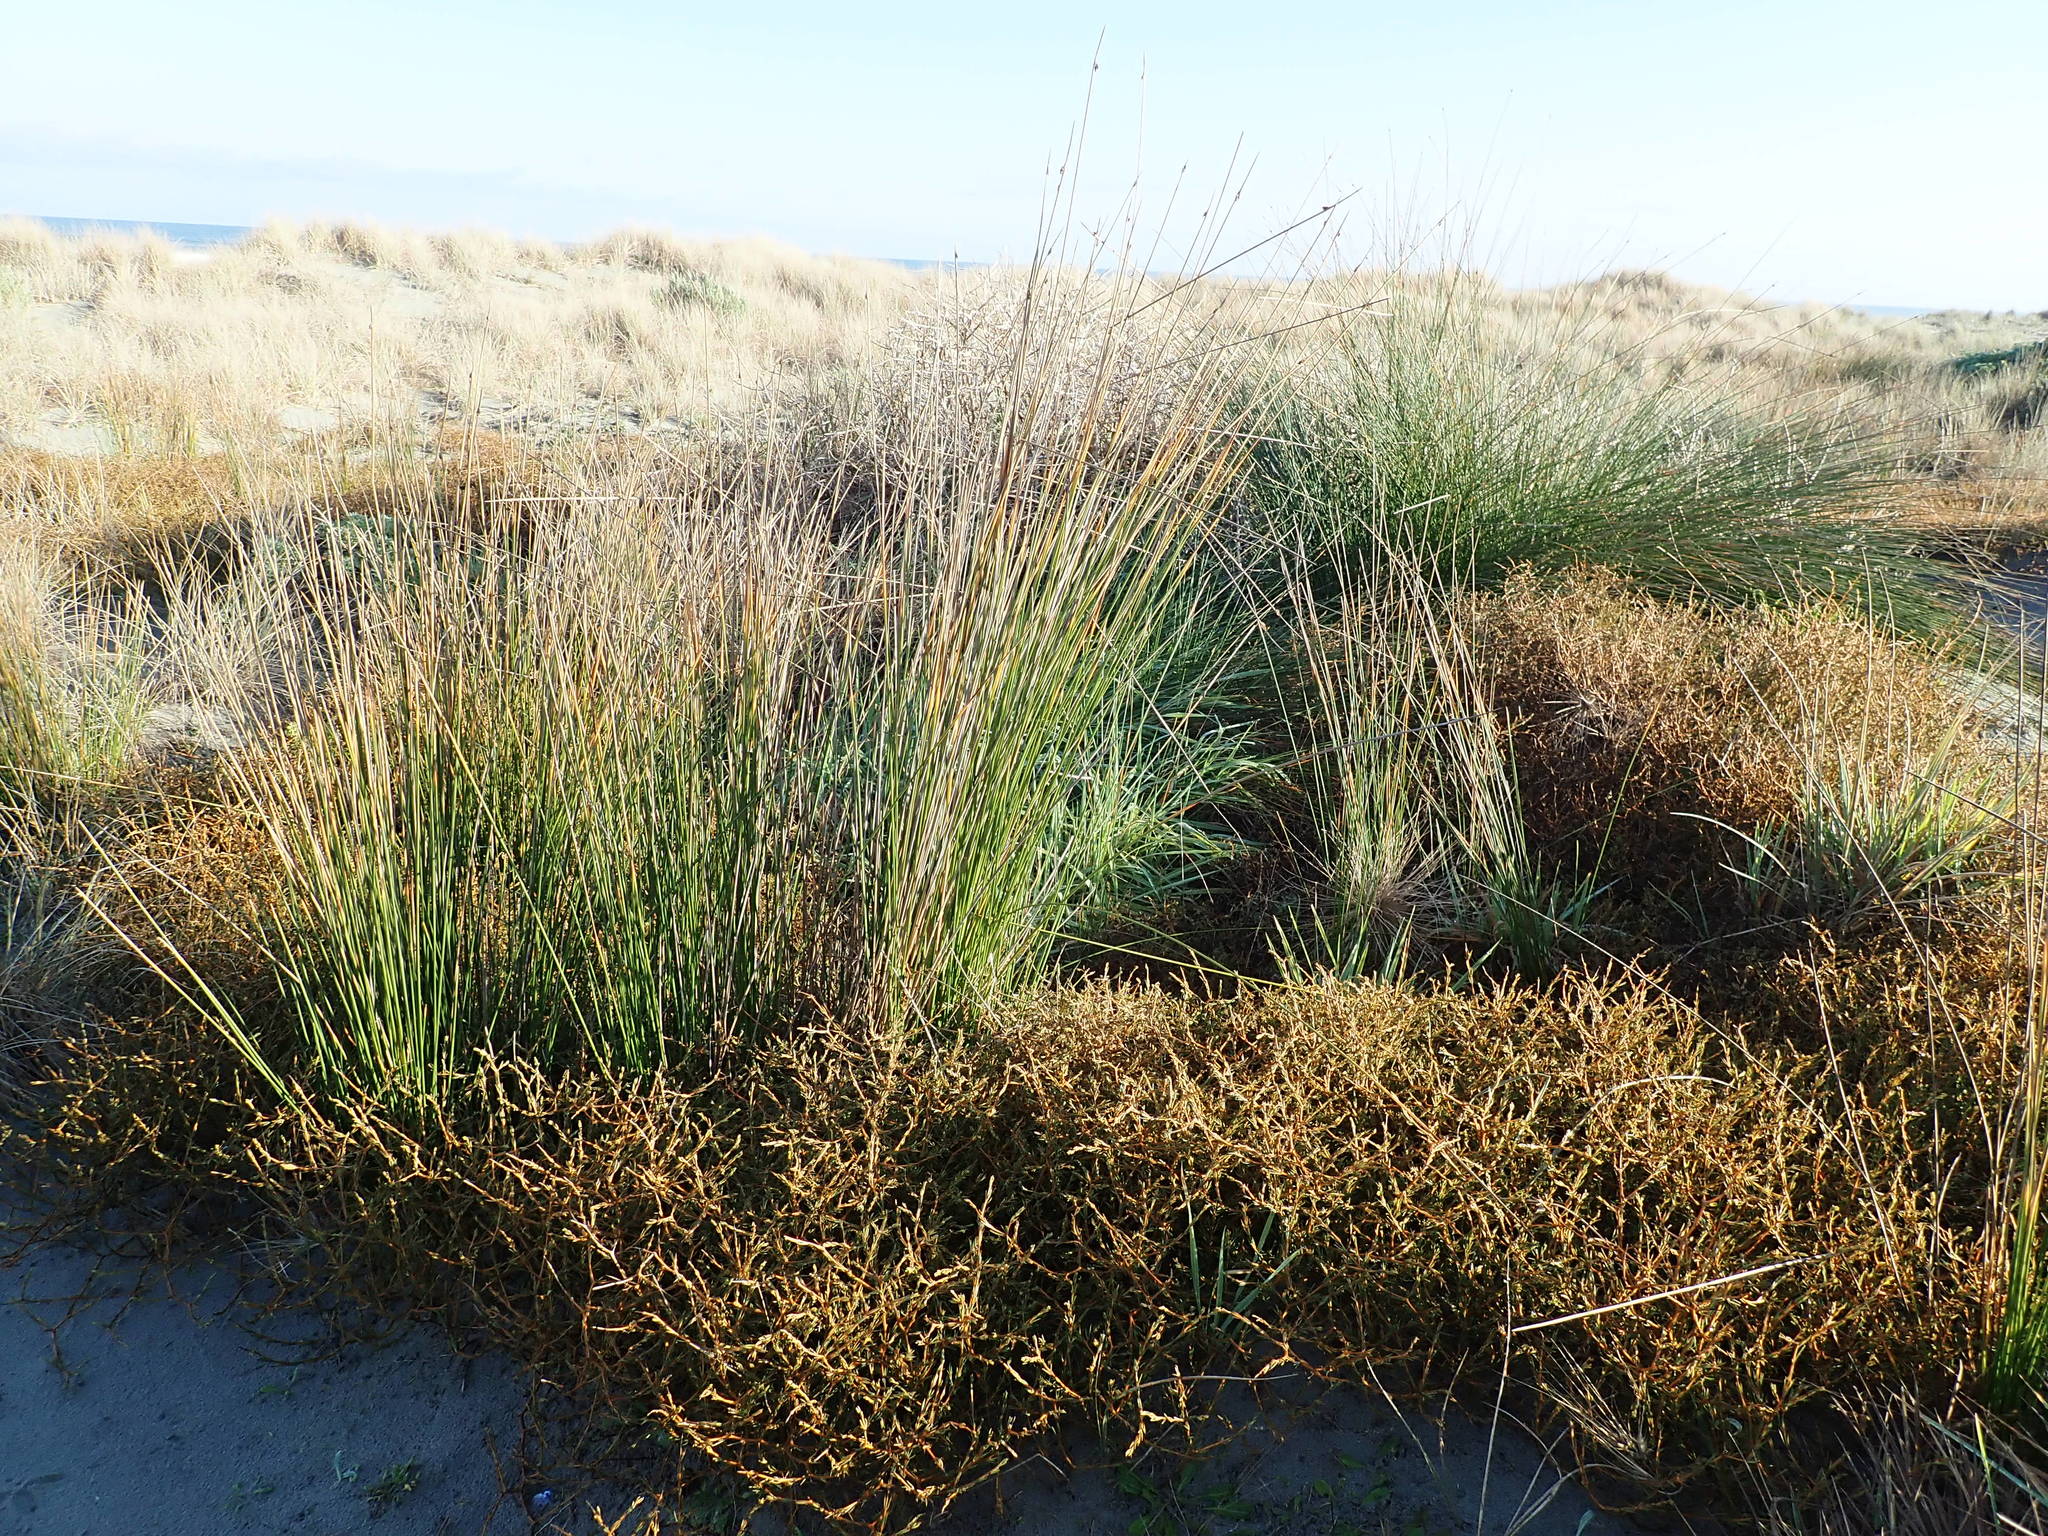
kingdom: Plantae
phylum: Tracheophyta
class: Liliopsida
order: Poales
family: Cyperaceae
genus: Ficinia
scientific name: Ficinia nodosa
